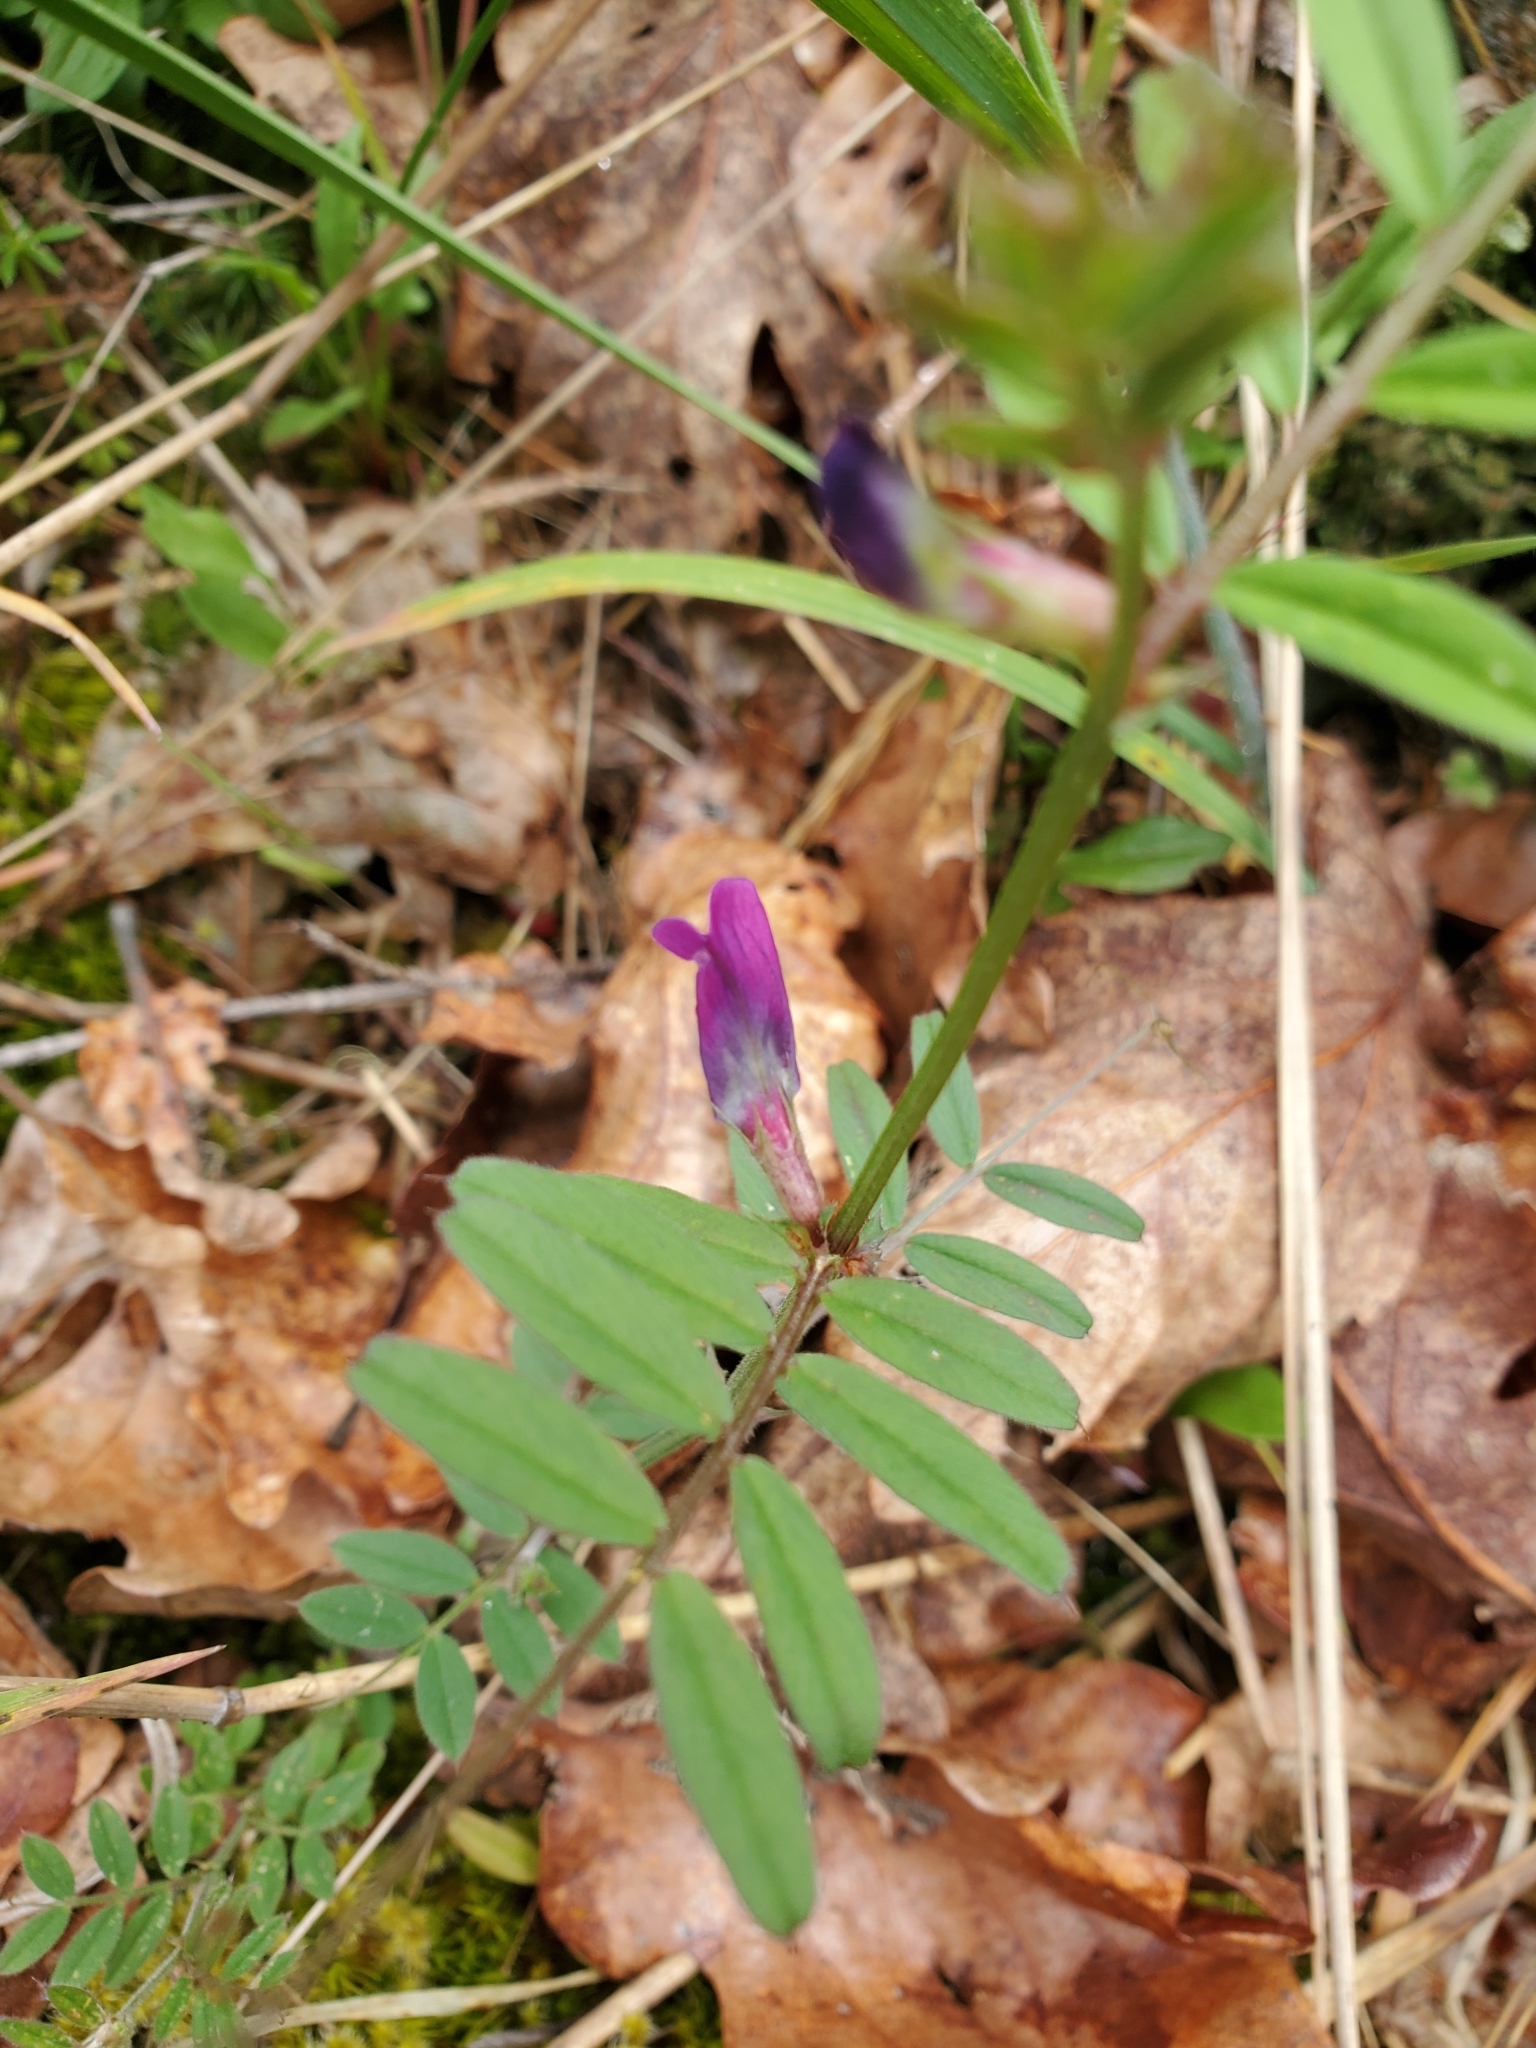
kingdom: Plantae
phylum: Tracheophyta
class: Magnoliopsida
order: Fabales
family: Fabaceae
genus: Vicia
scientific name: Vicia sativa
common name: Garden vetch
